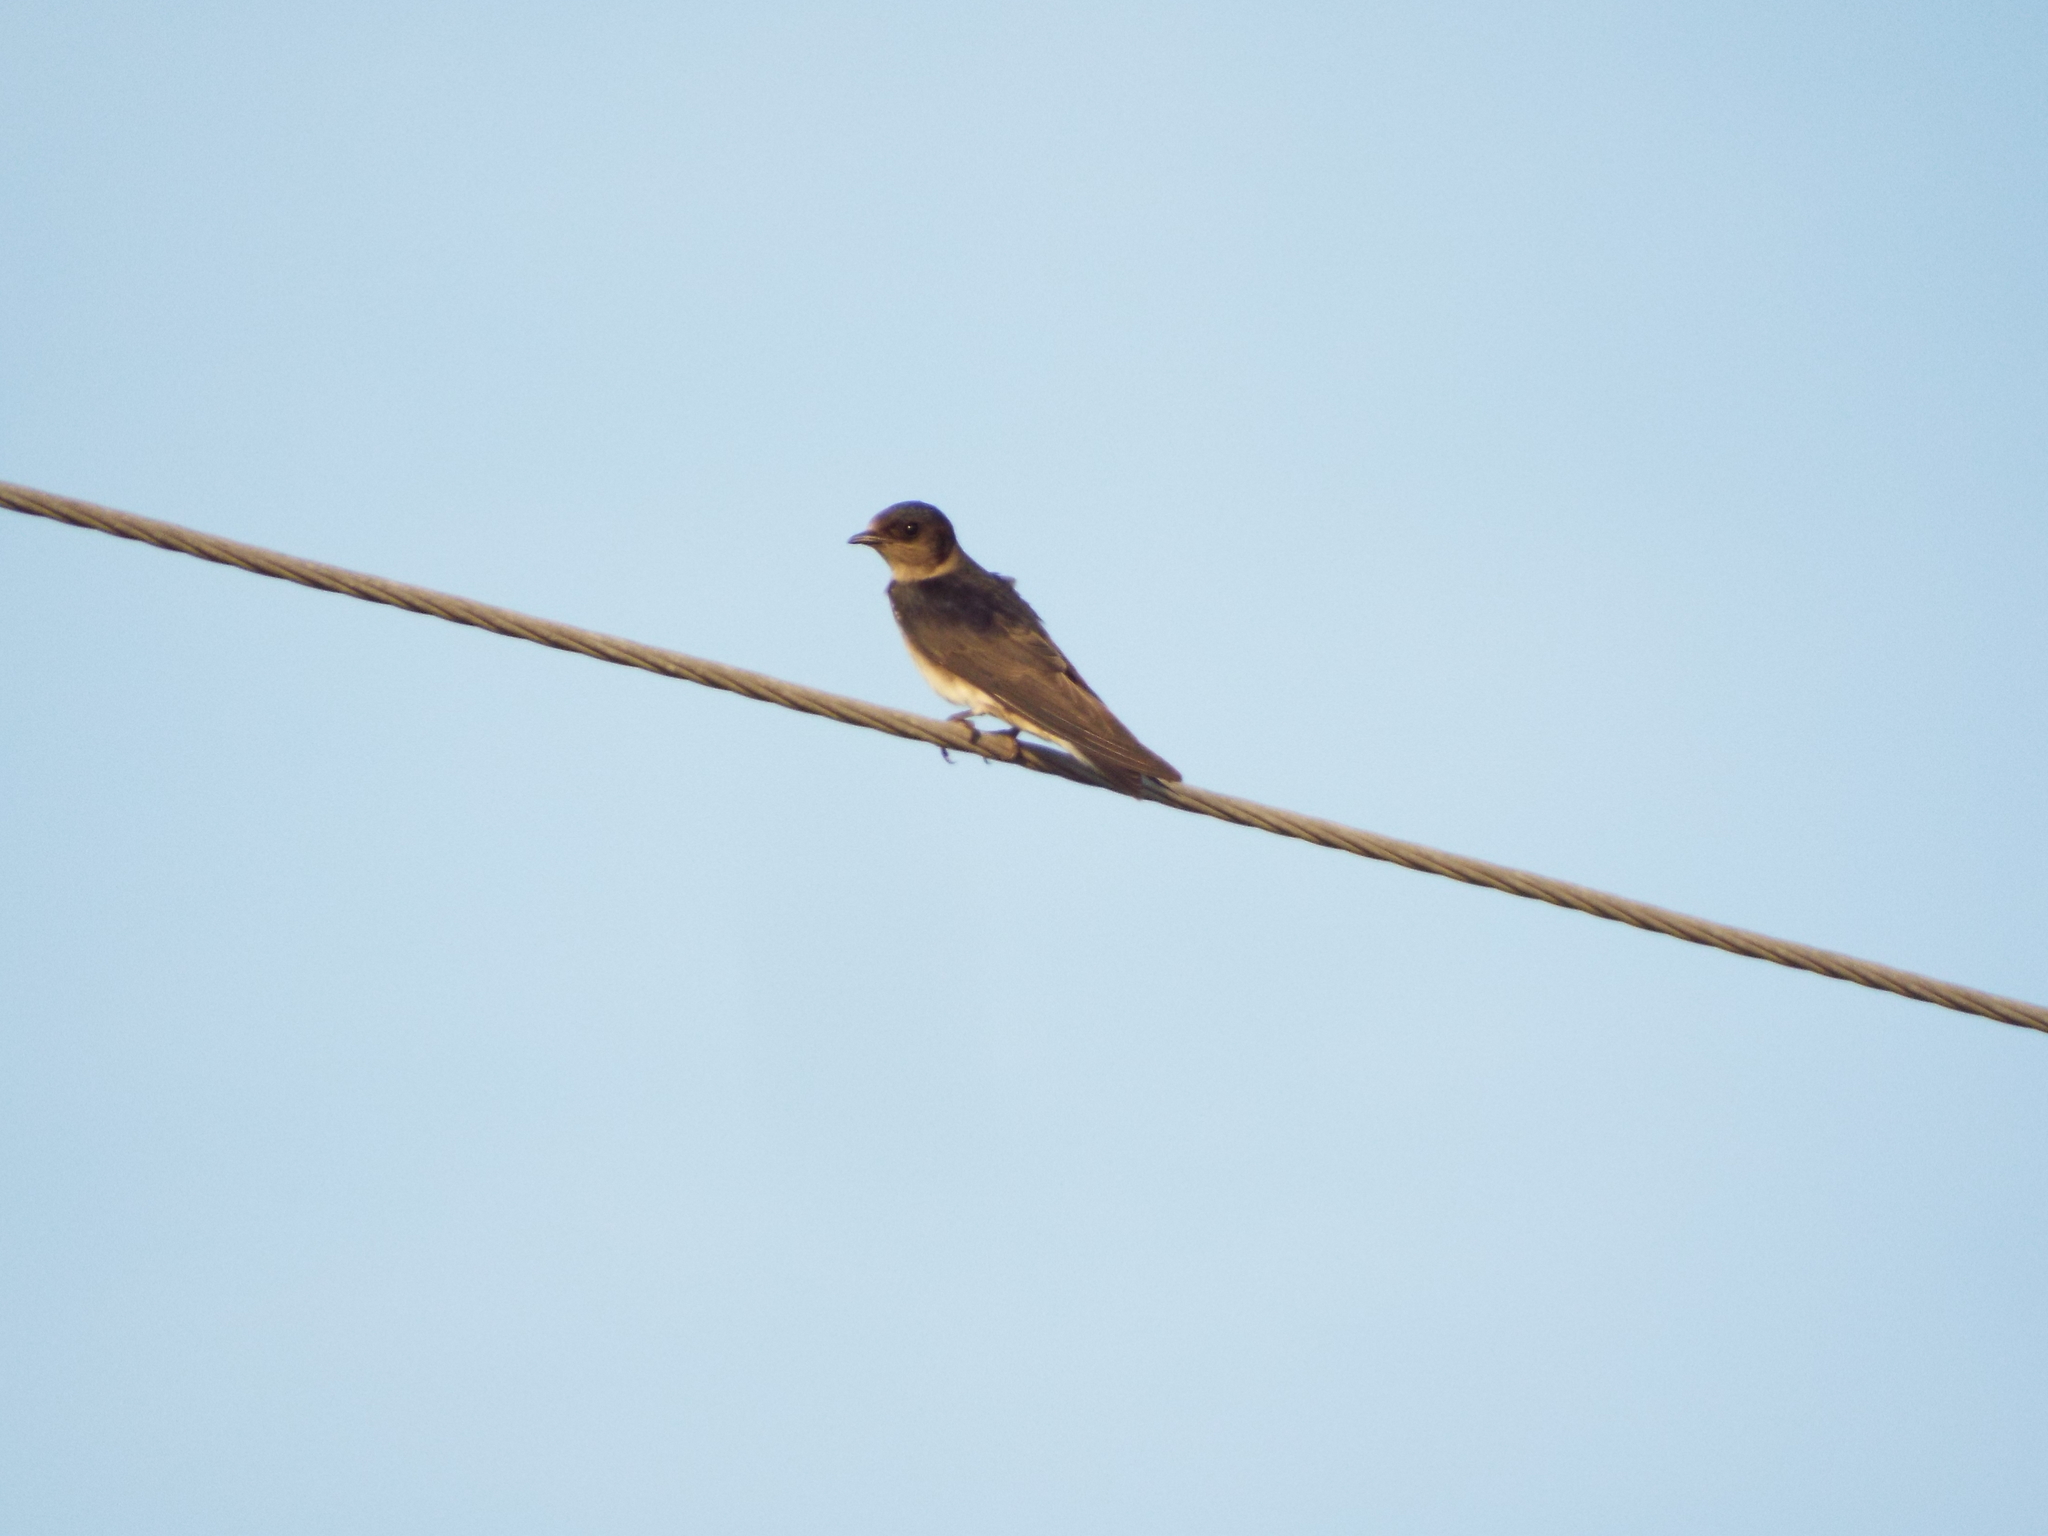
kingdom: Animalia
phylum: Chordata
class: Aves
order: Passeriformes
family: Hirundinidae
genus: Hirundo
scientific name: Hirundo rustica
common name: Barn swallow
